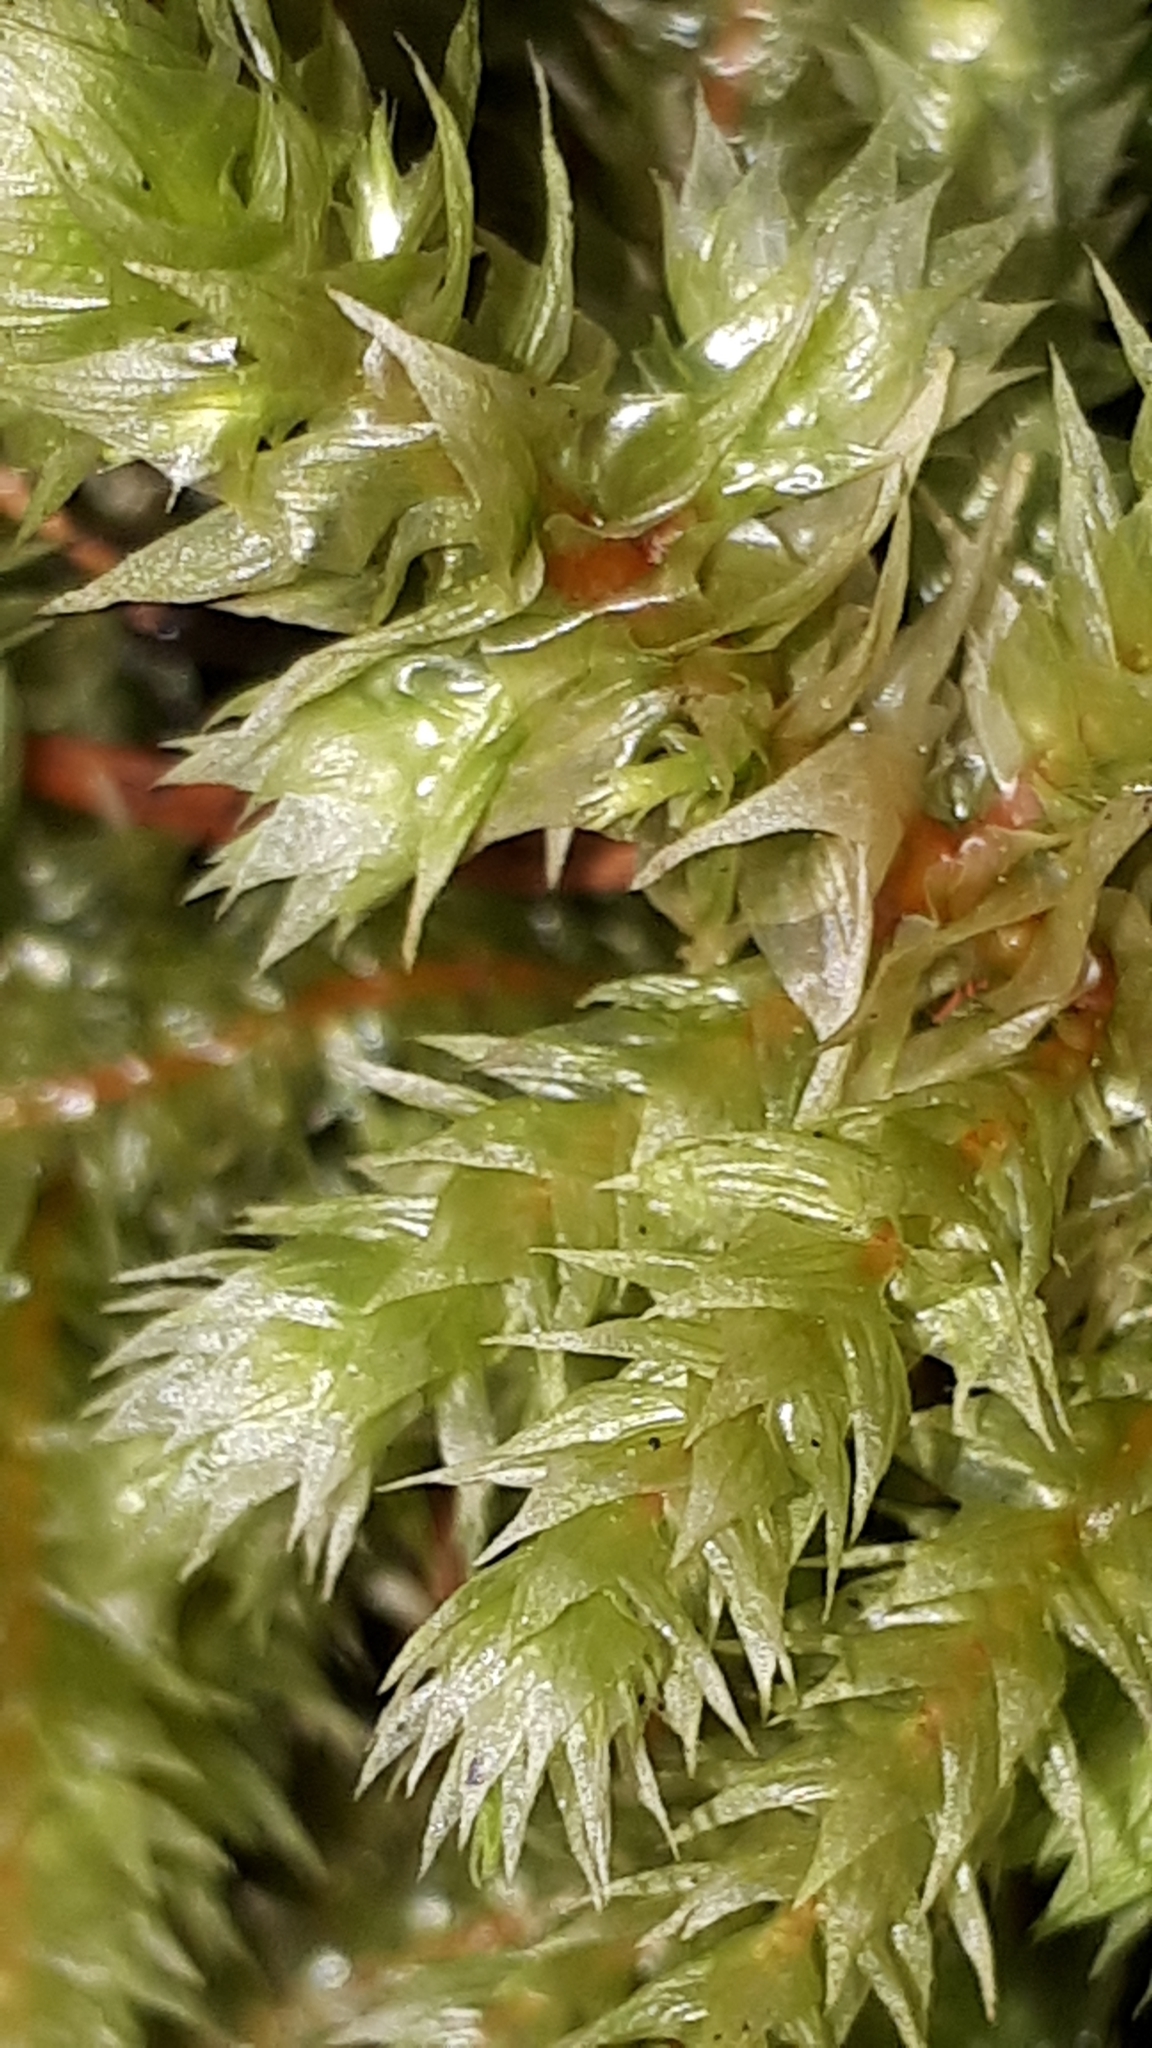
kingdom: Plantae
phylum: Bryophyta
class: Bryopsida
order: Hypnales
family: Hylocomiaceae
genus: Hylocomiadelphus
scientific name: Hylocomiadelphus triquetrus
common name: Rough goose neck moss
